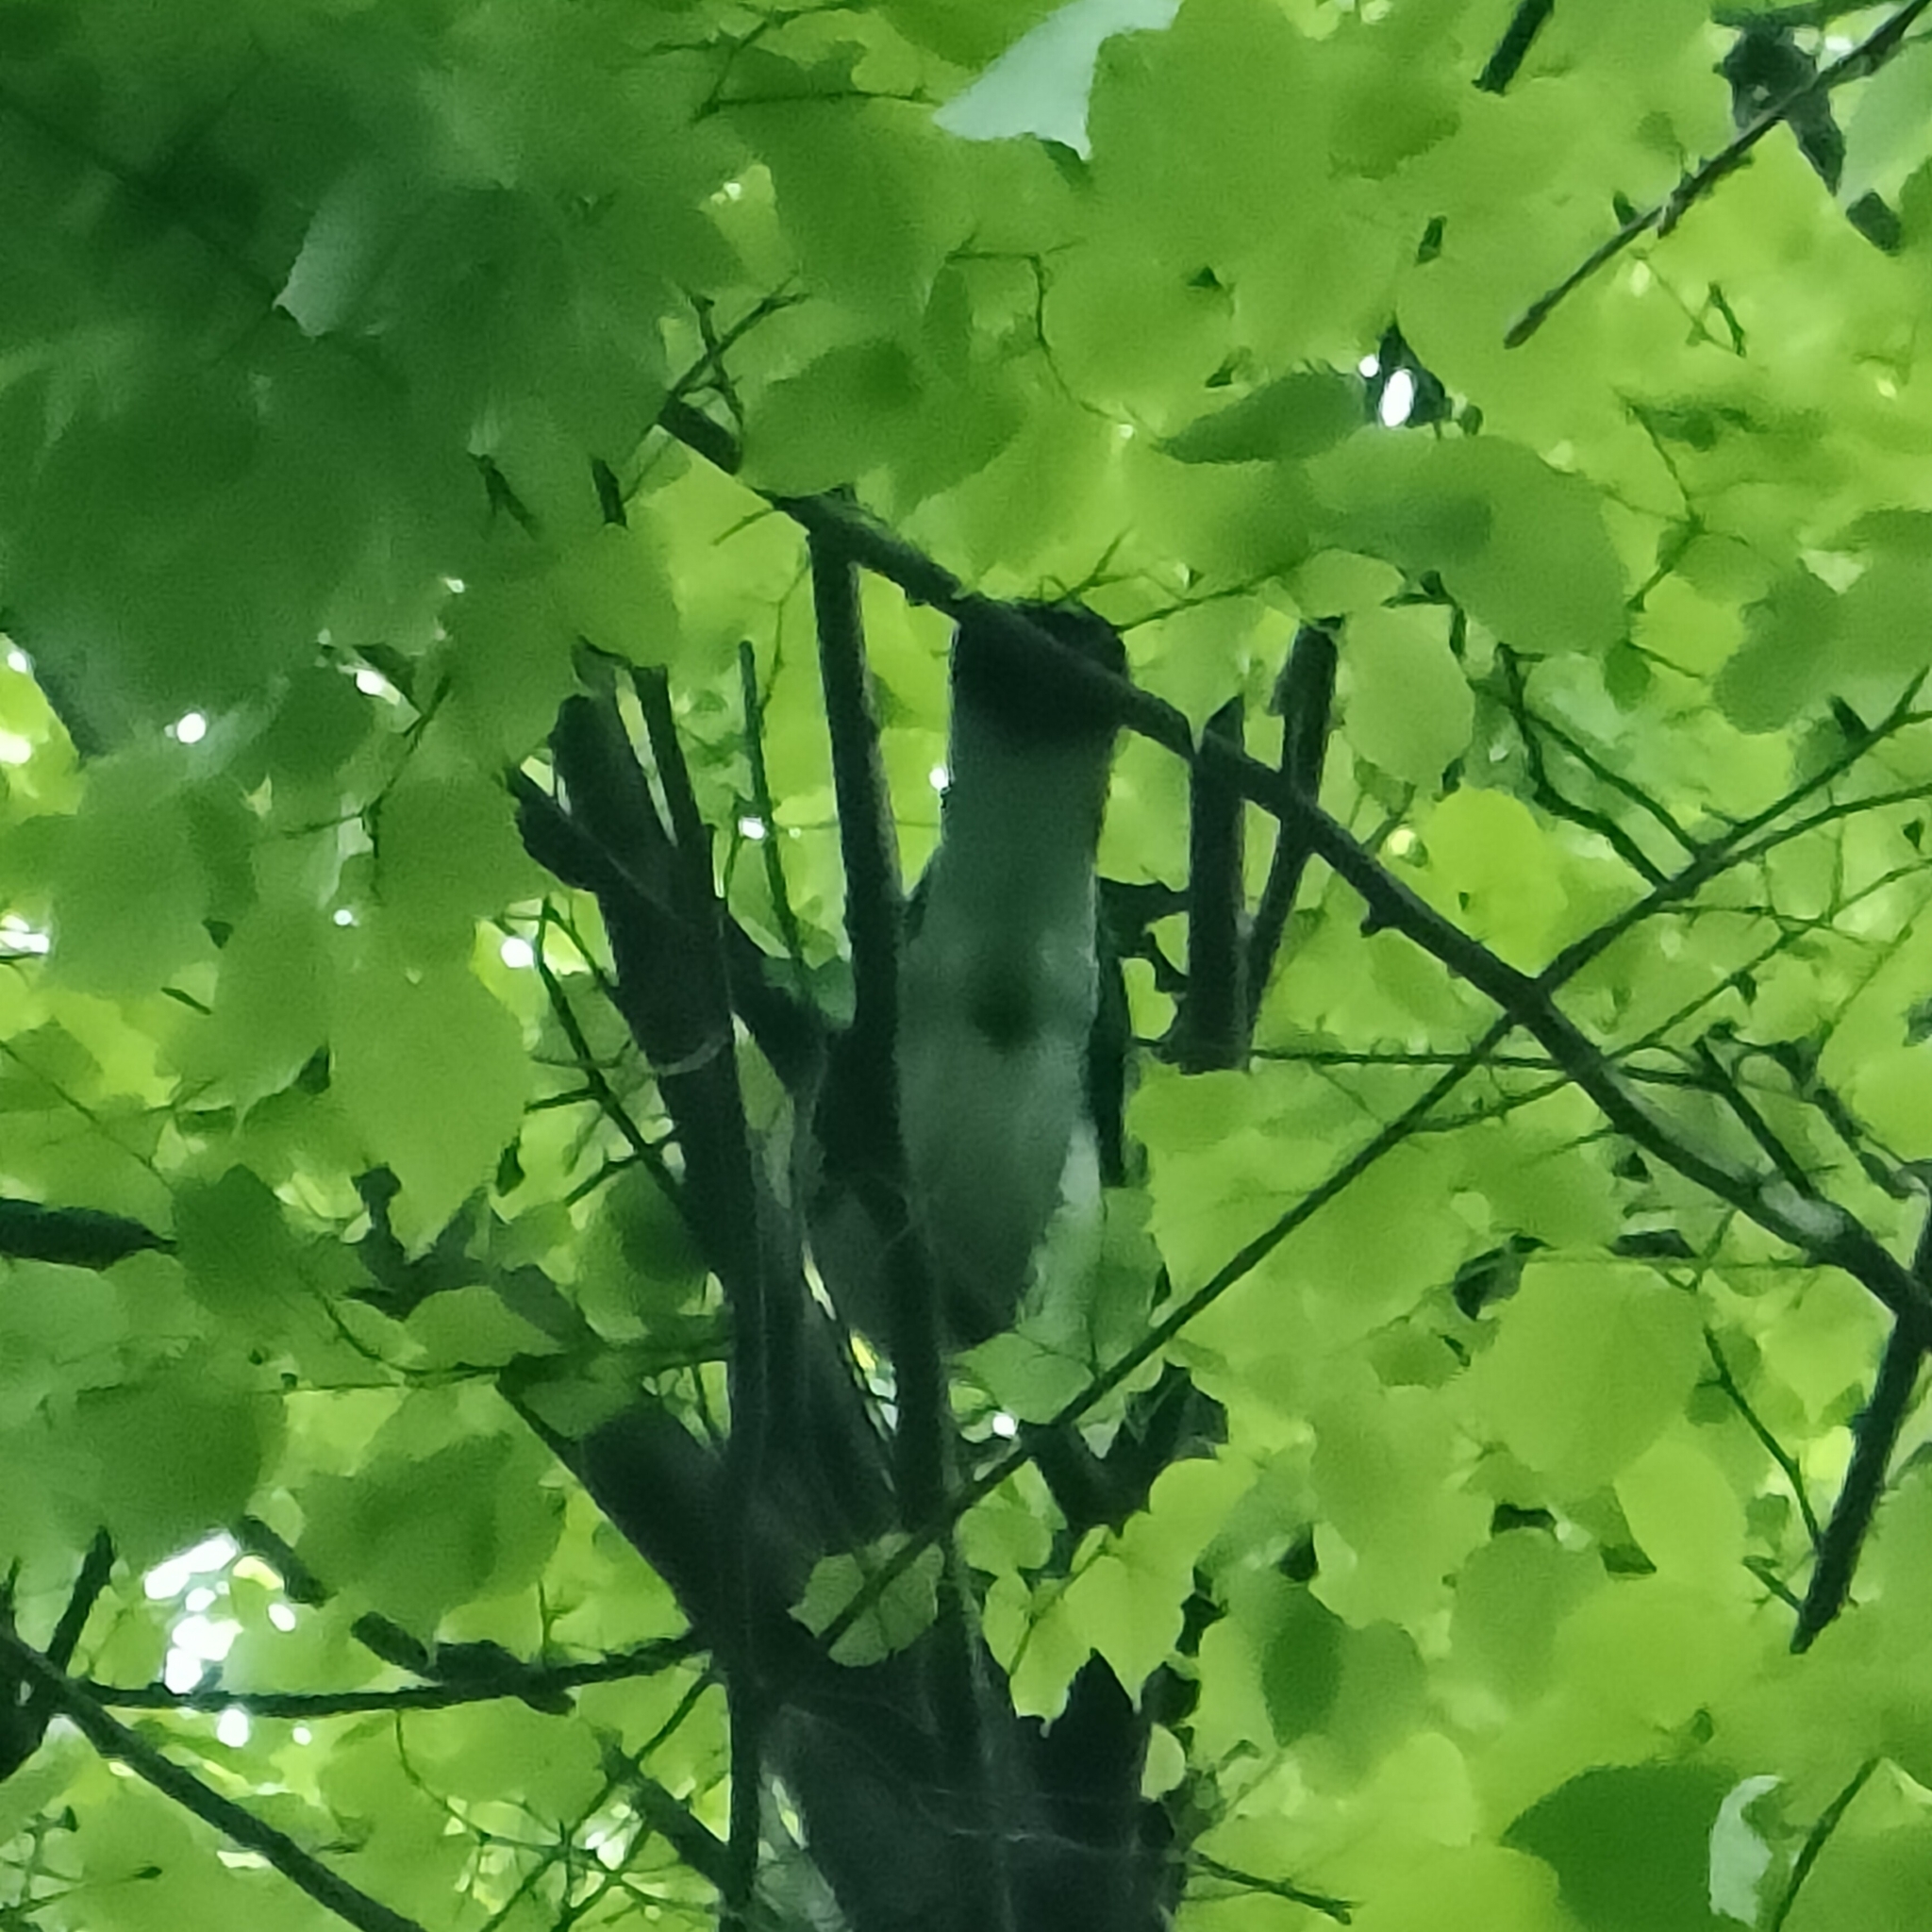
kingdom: Animalia
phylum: Chordata
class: Aves
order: Columbiformes
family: Columbidae
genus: Columba
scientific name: Columba palumbus
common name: Common wood pigeon
